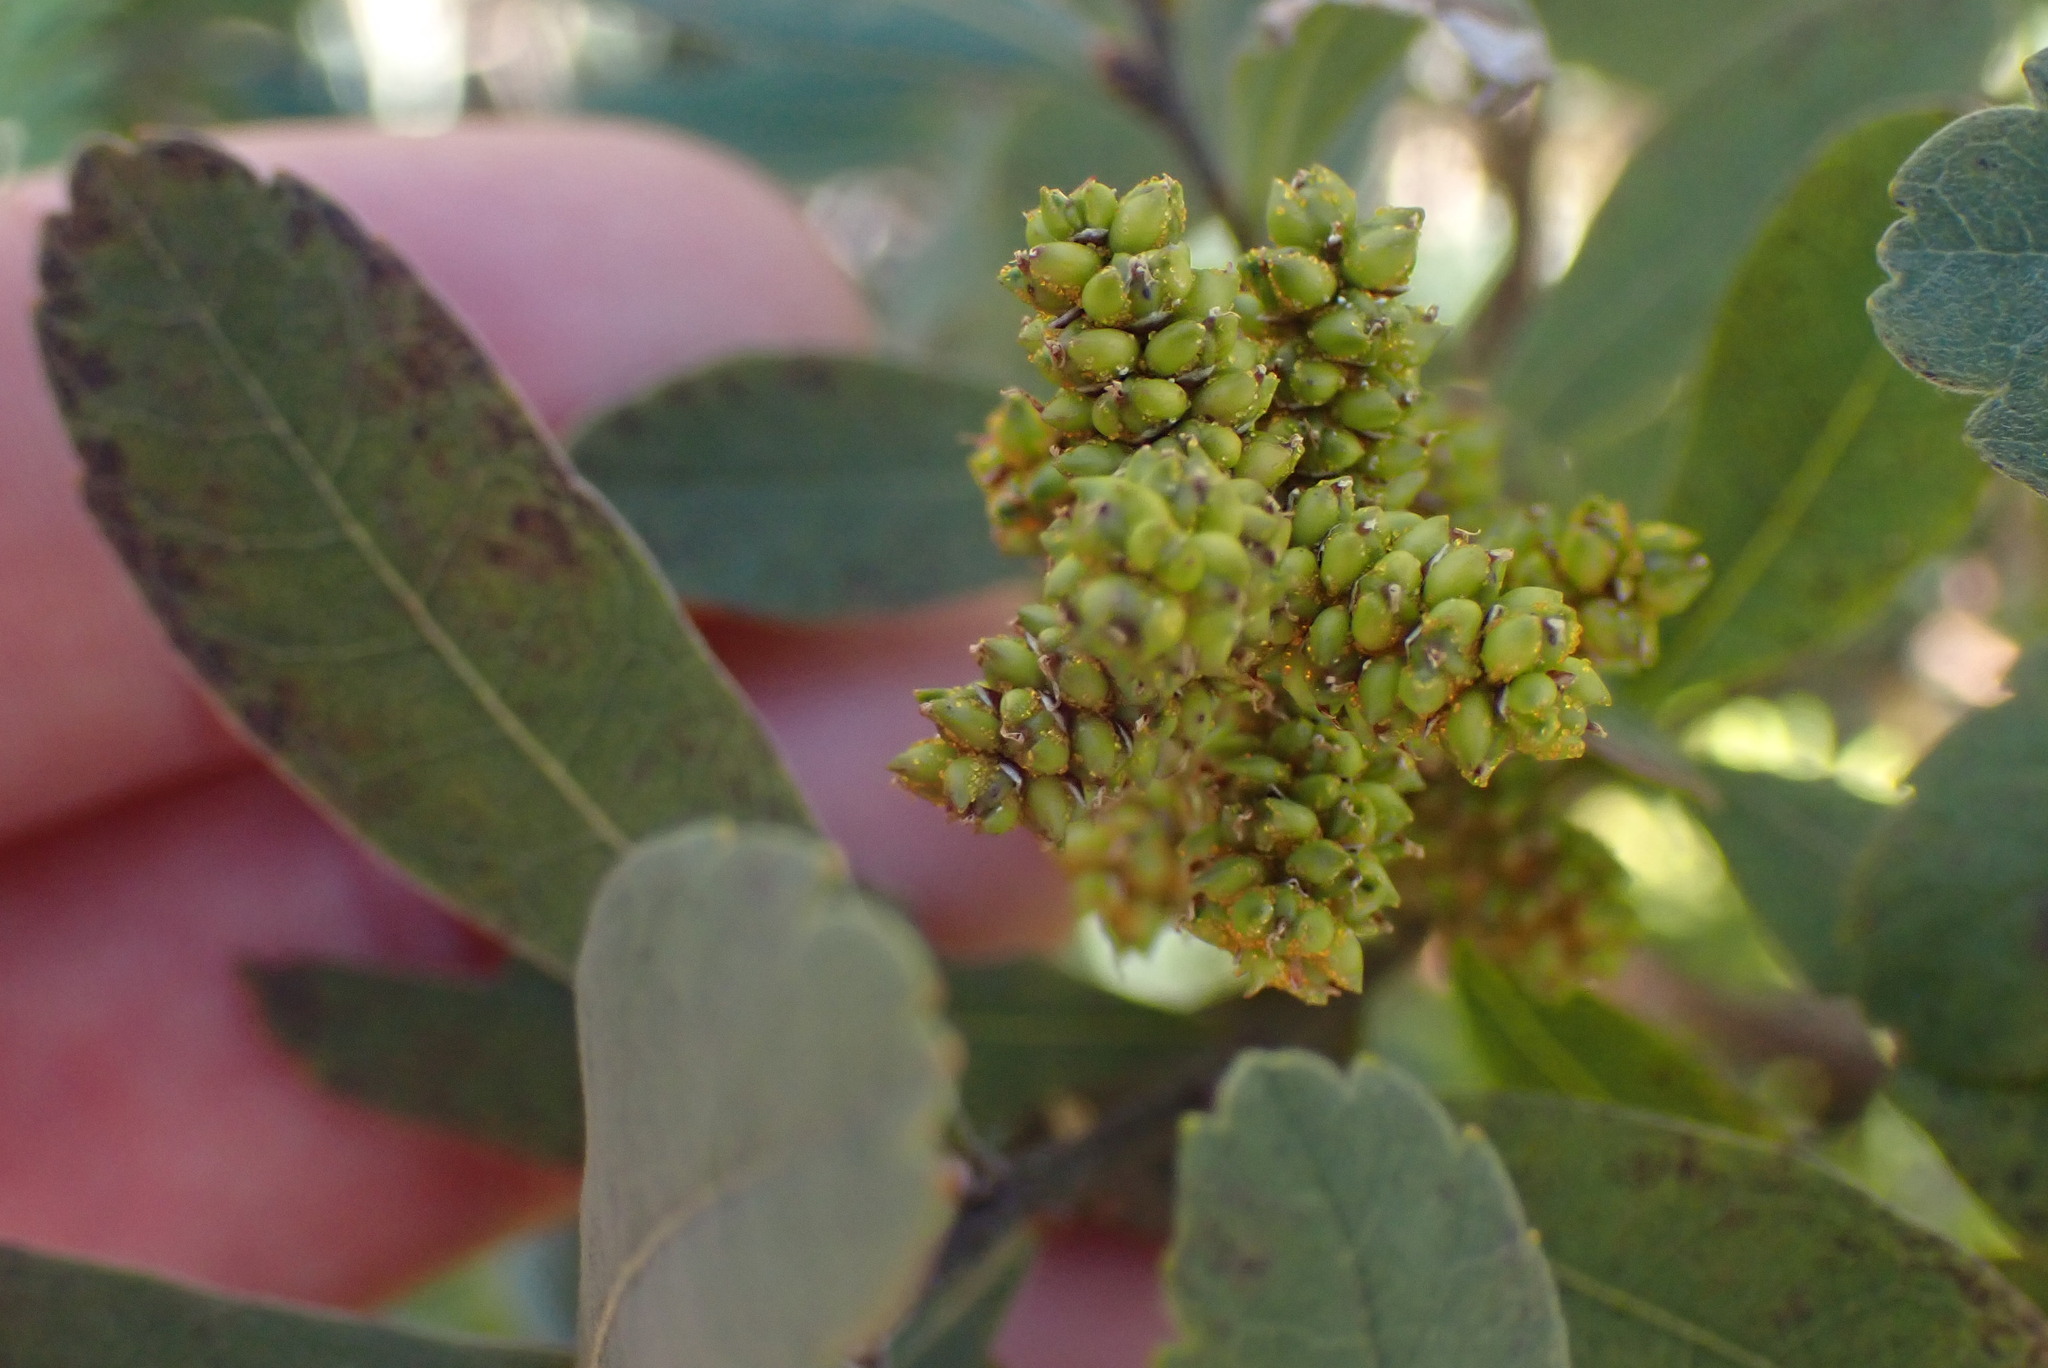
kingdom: Plantae
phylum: Tracheophyta
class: Magnoliopsida
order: Fagales
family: Myricaceae
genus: Myrica
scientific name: Myrica gale
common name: Sweet gale
